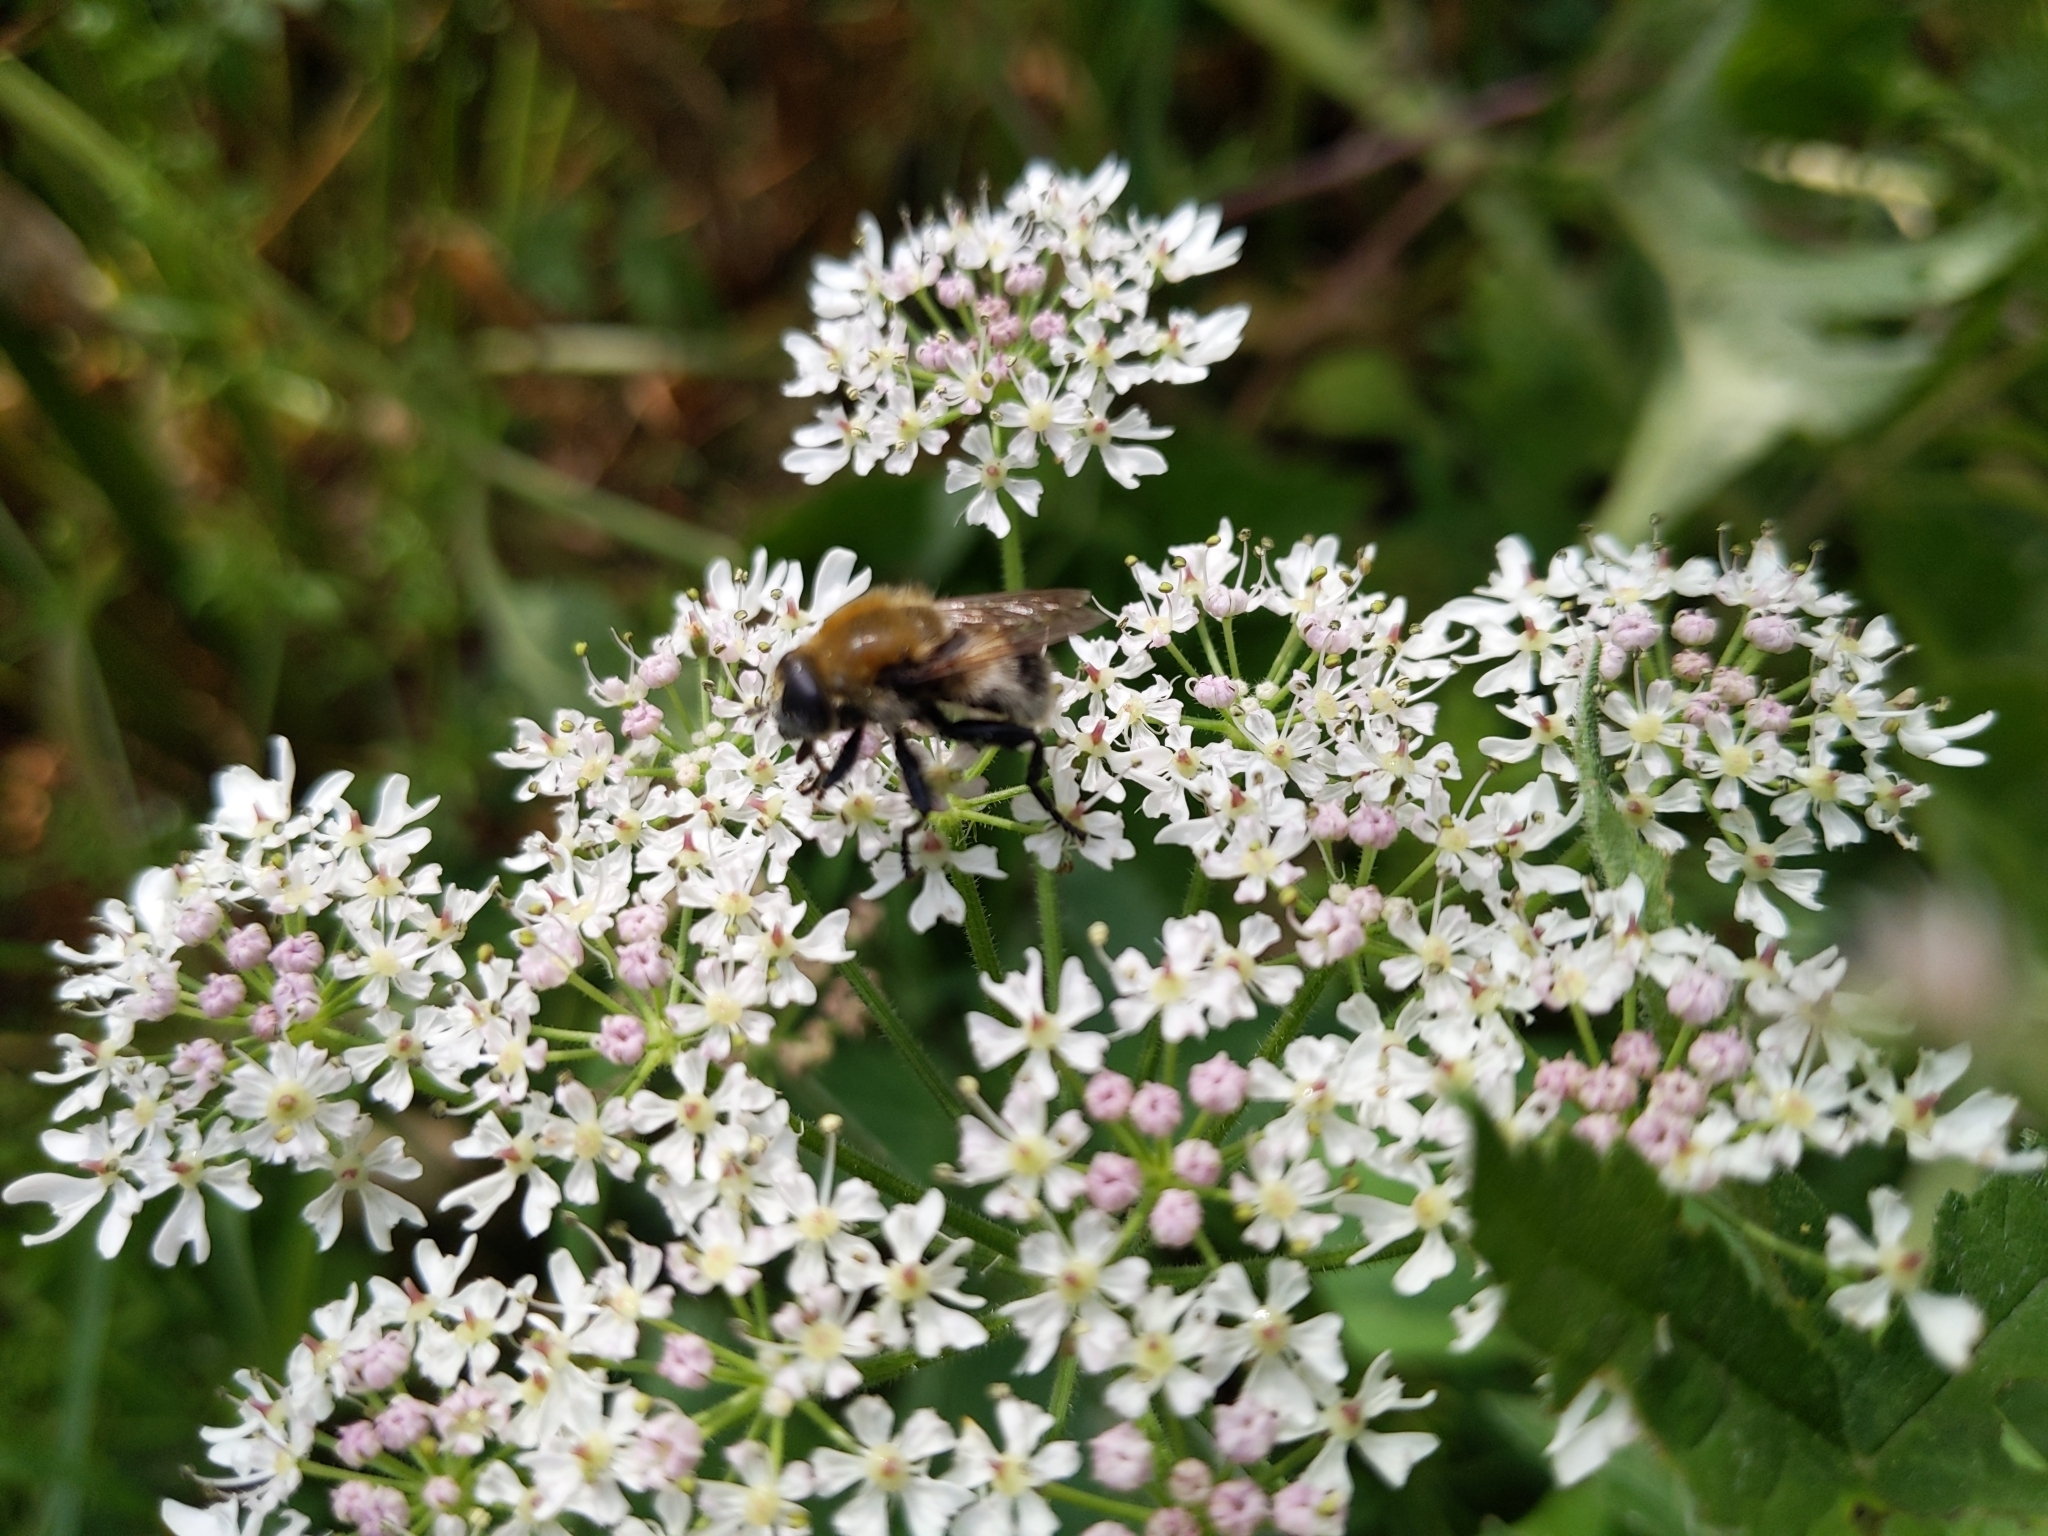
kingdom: Animalia
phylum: Arthropoda
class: Insecta
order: Diptera
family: Syrphidae
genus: Merodon
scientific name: Merodon equestris
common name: Greater bulb-fly
